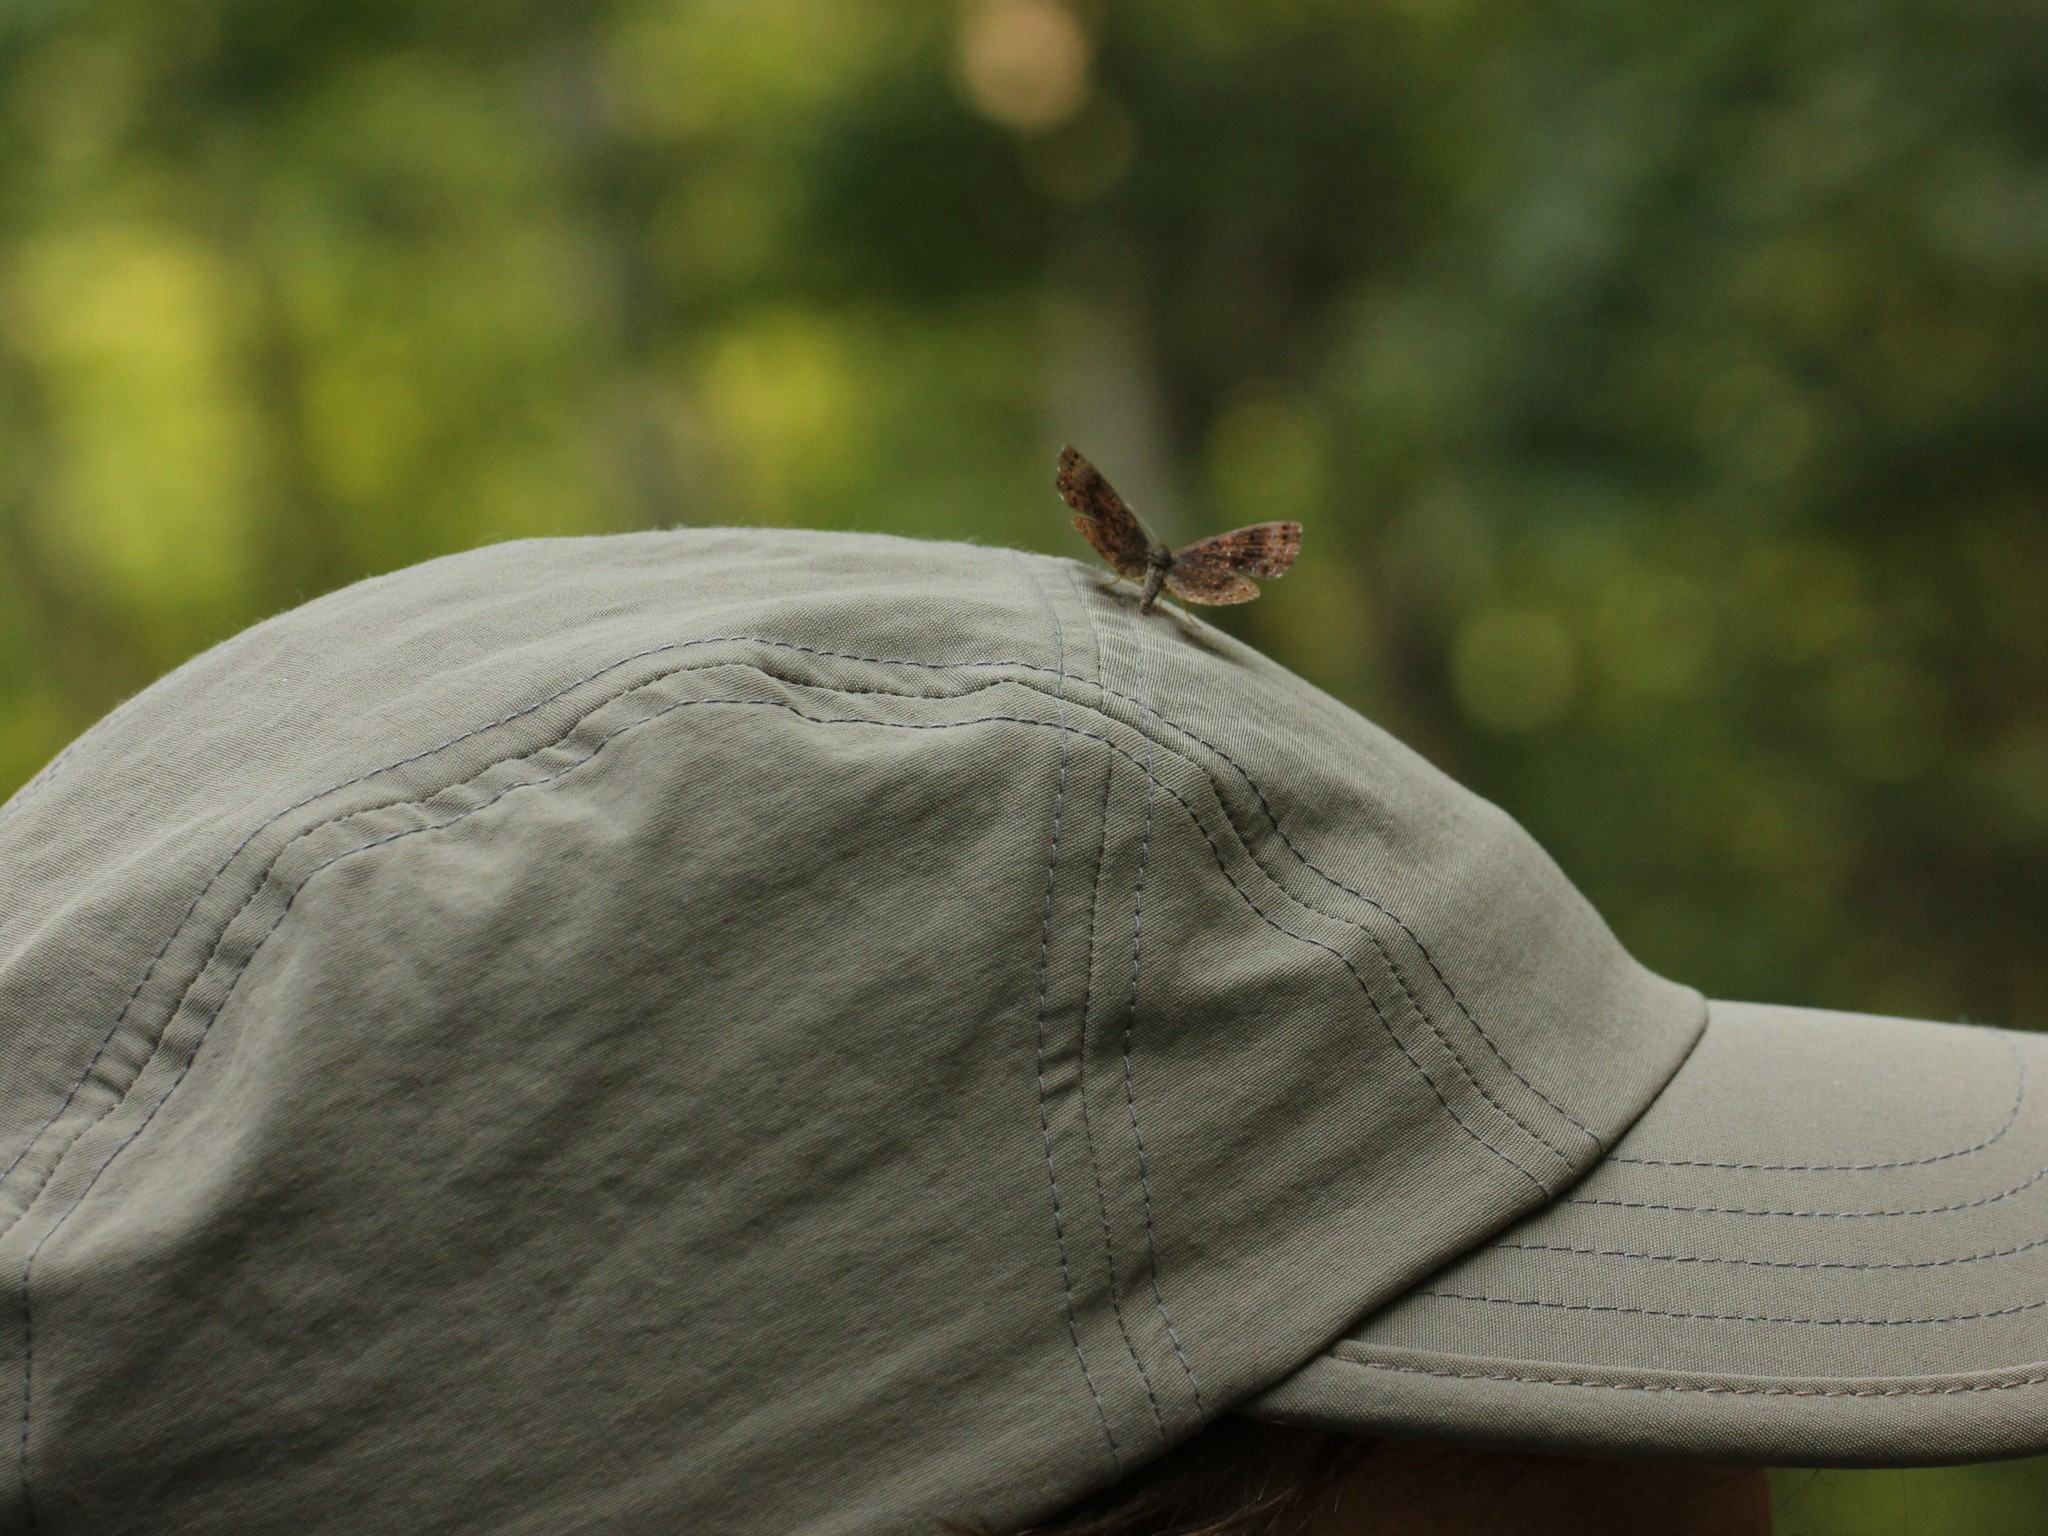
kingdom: Animalia
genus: Calephelis
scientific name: Calephelis borealis
